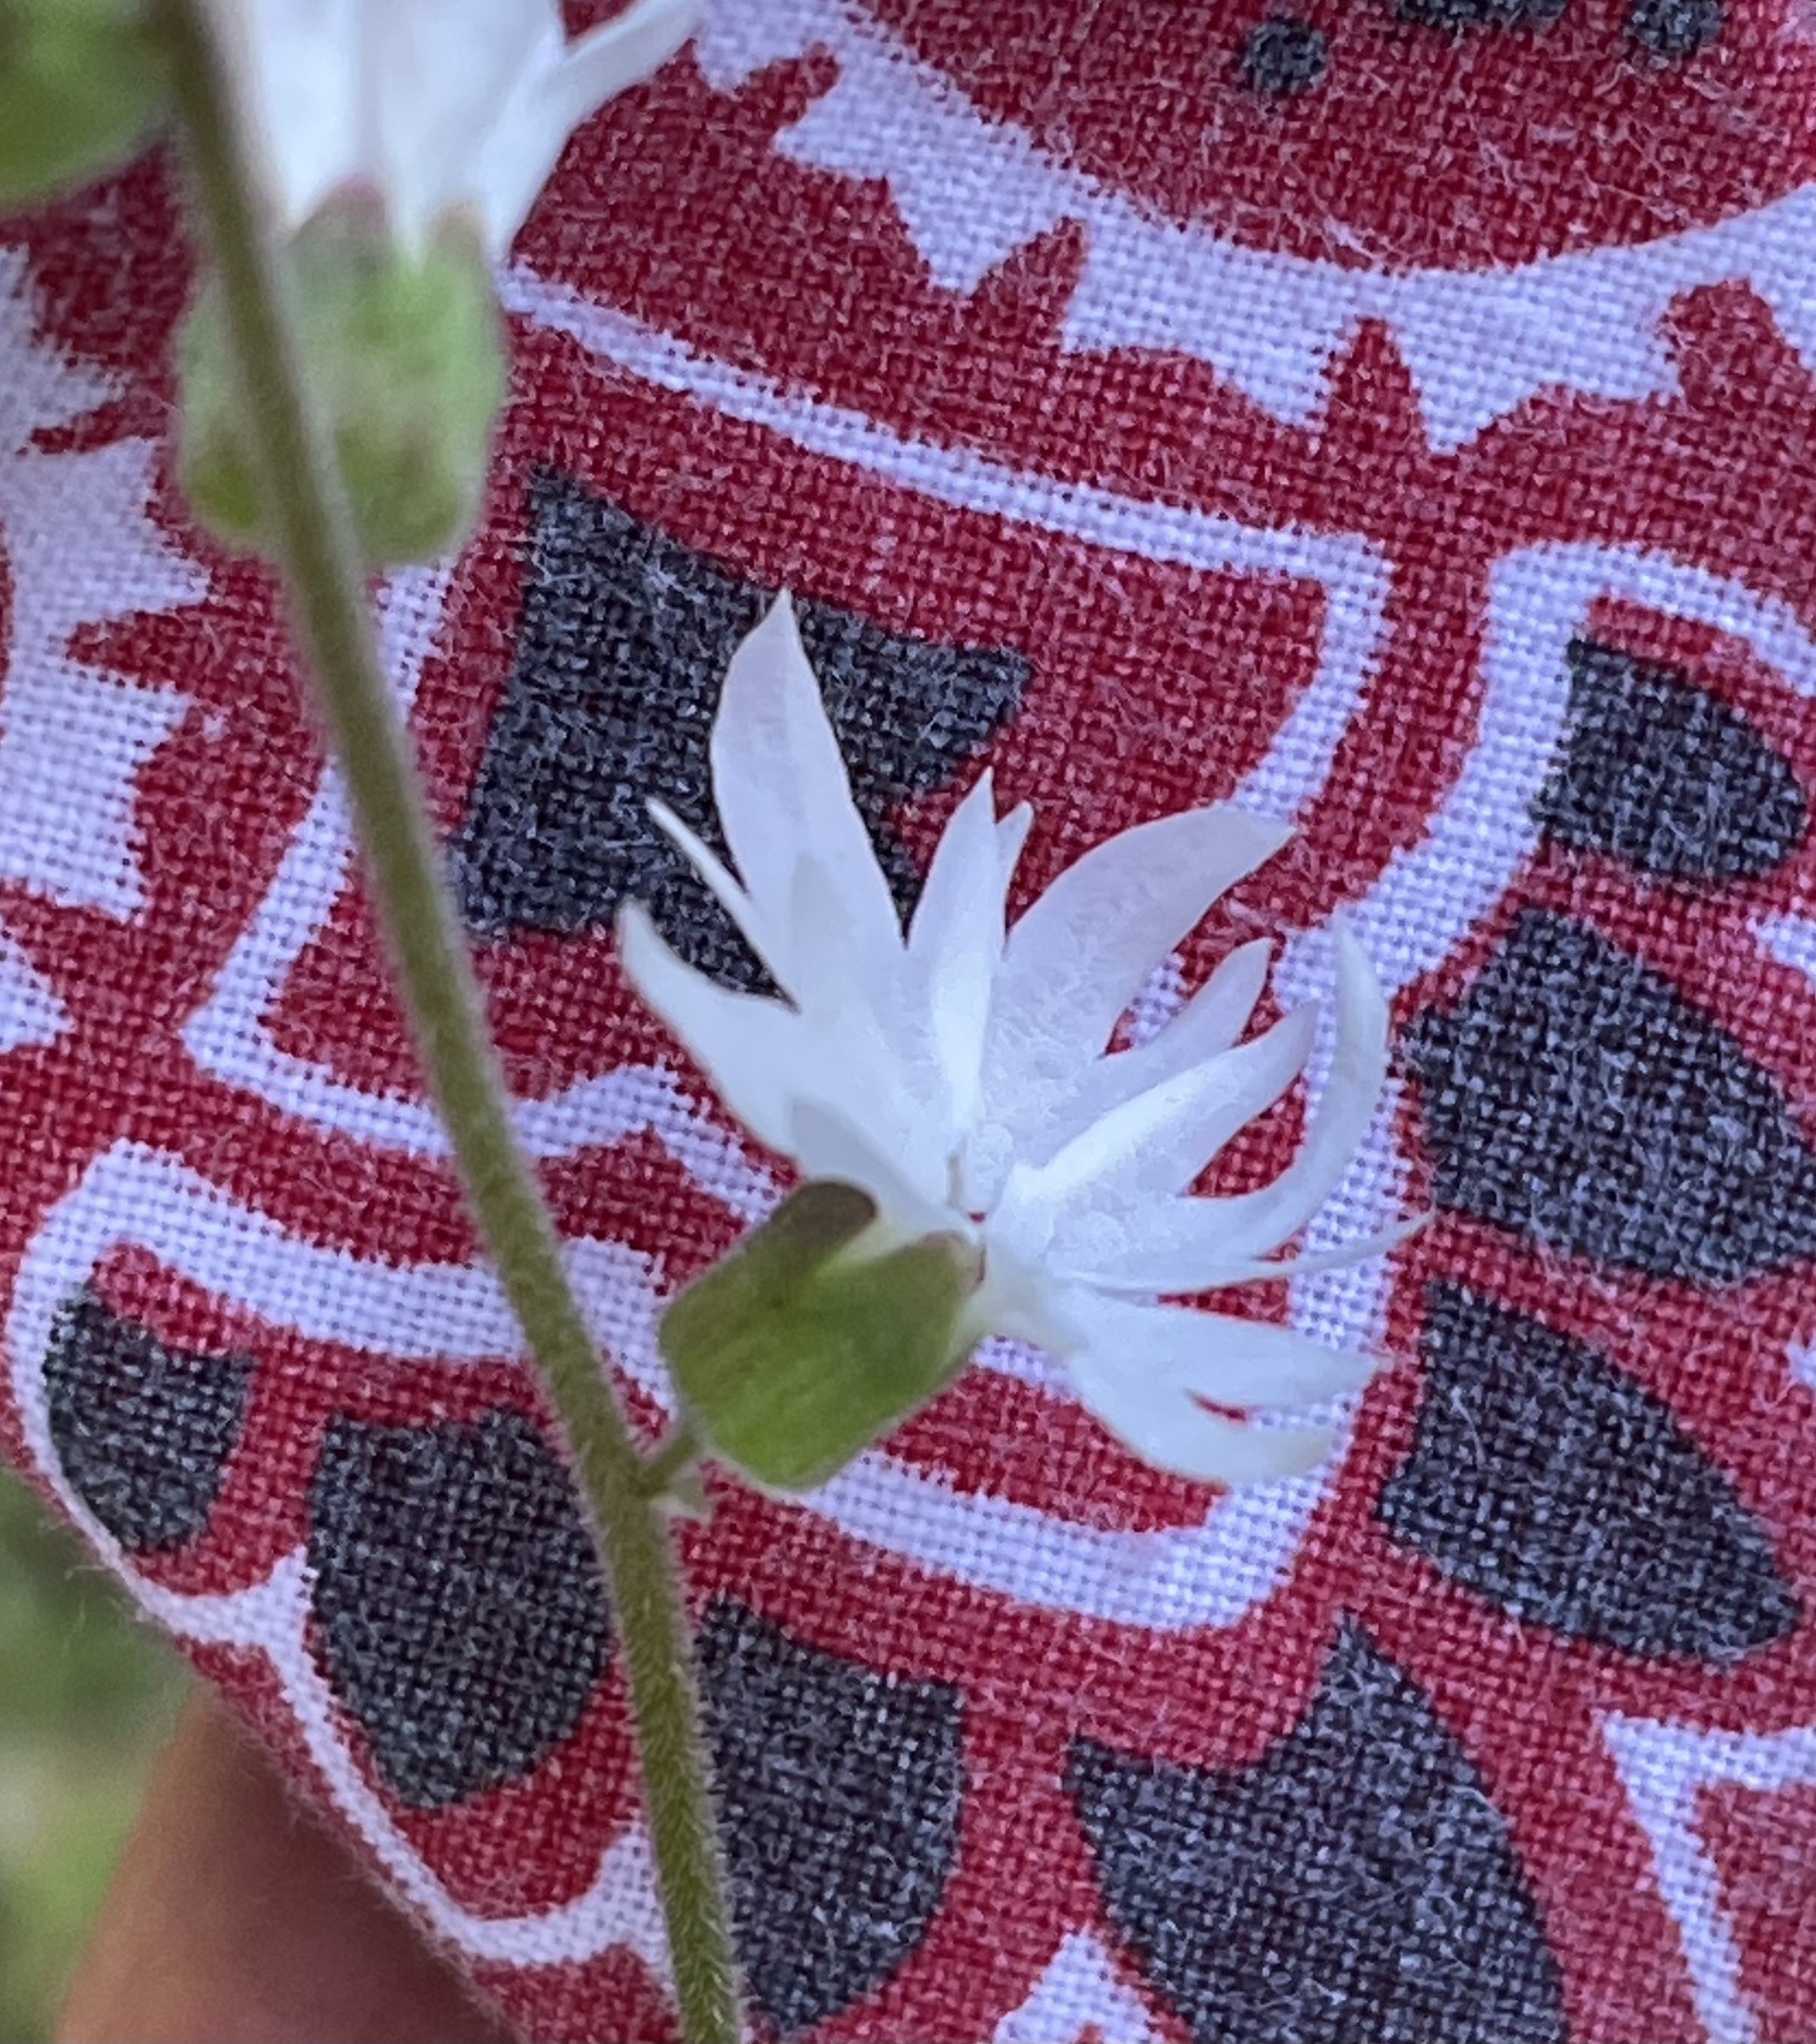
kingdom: Plantae
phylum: Tracheophyta
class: Magnoliopsida
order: Saxifragales
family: Saxifragaceae
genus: Lithophragma
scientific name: Lithophragma heterophyllum
